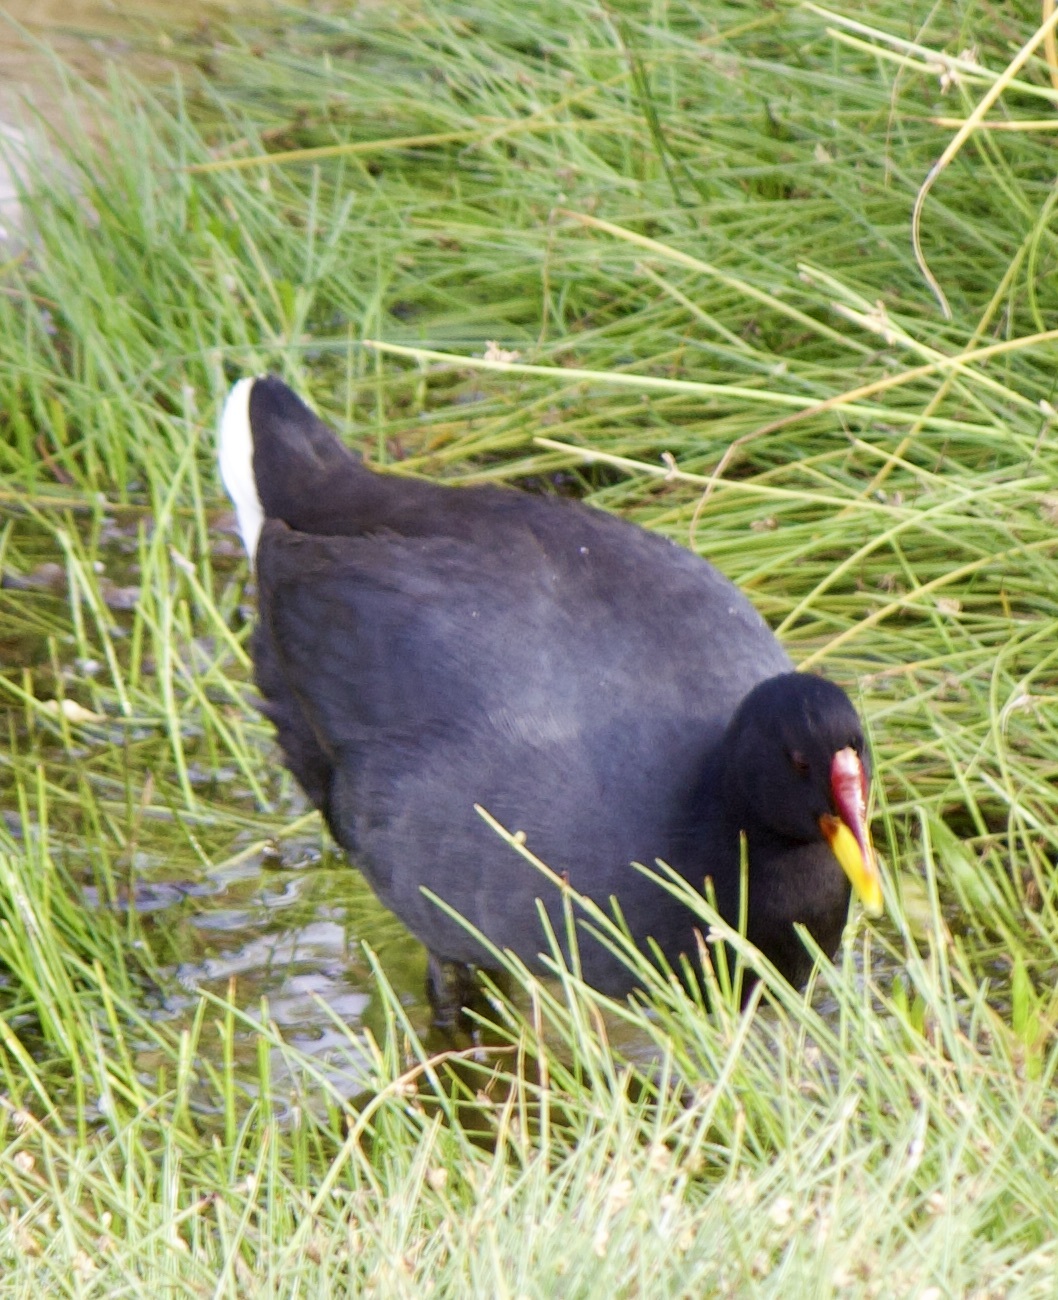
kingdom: Animalia
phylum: Chordata
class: Aves
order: Gruiformes
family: Rallidae
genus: Fulica
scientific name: Fulica rufifrons
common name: Red-fronted coot
